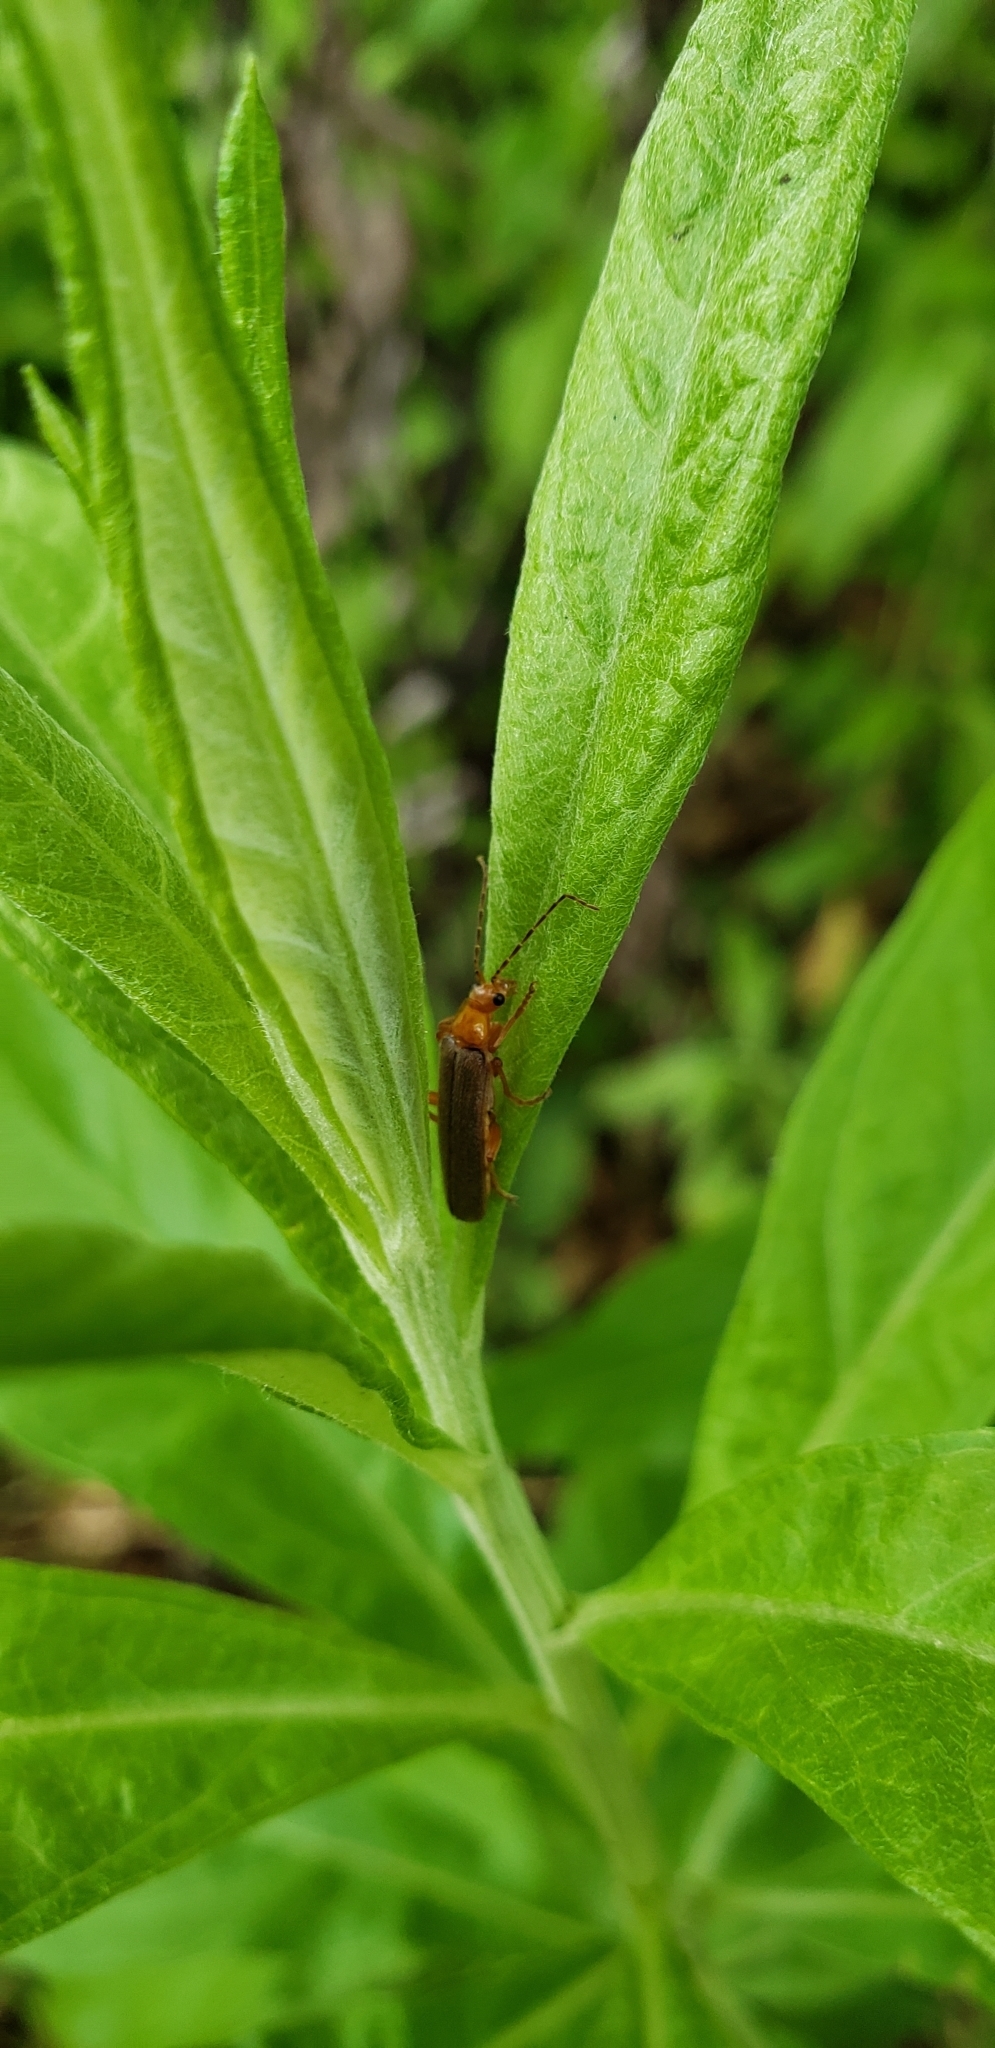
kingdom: Animalia
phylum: Arthropoda
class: Insecta
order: Coleoptera
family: Cantharidae
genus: Cultellunguis
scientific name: Cultellunguis perpallens
